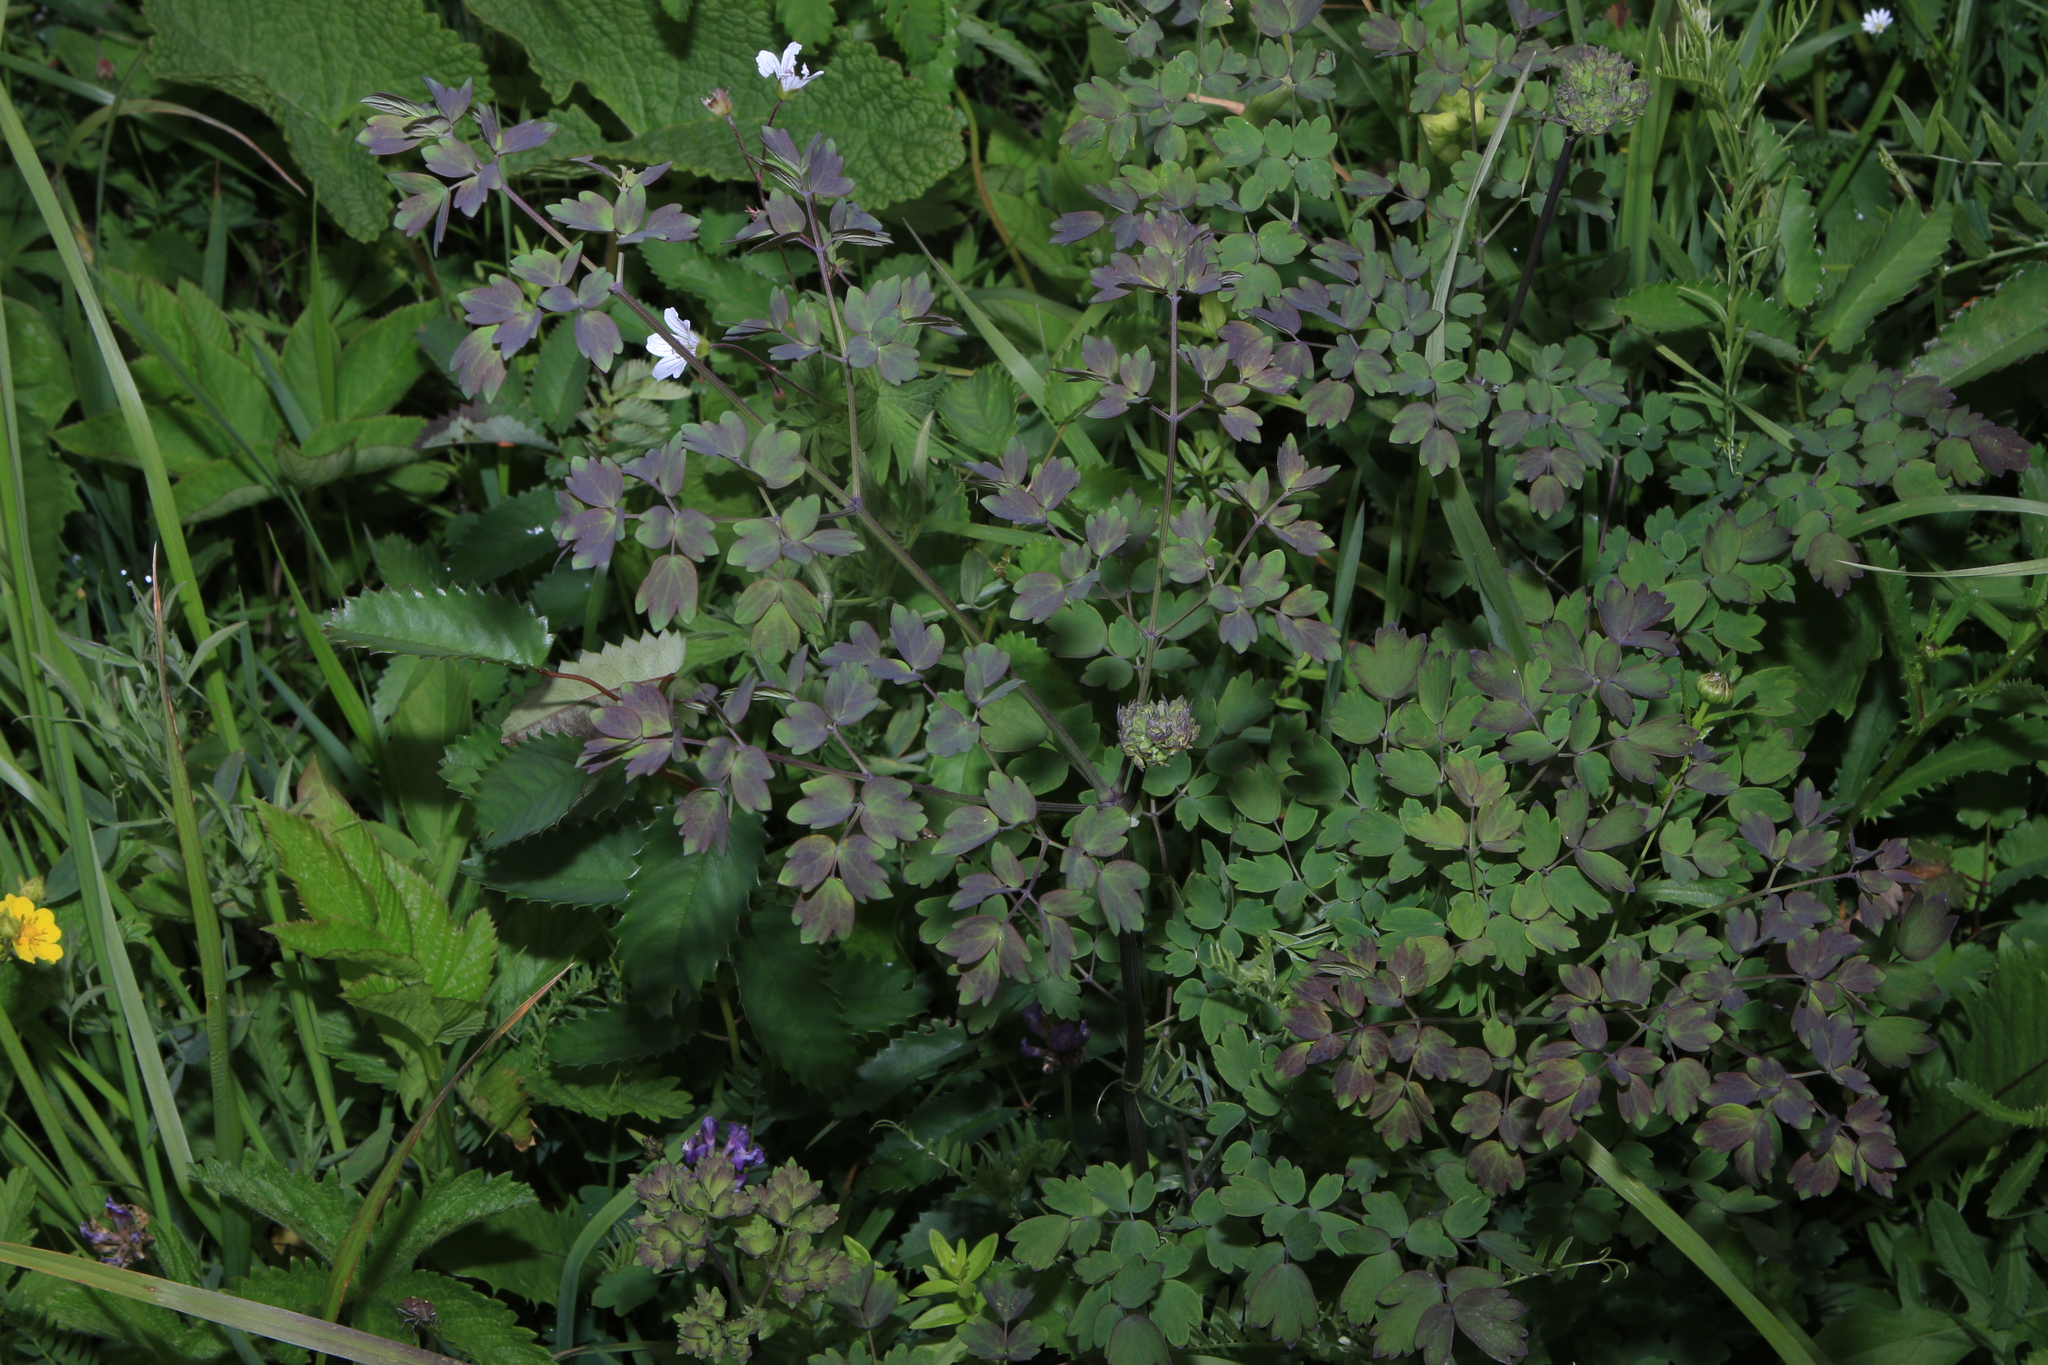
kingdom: Plantae
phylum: Tracheophyta
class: Magnoliopsida
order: Ranunculales
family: Ranunculaceae
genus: Thalictrum
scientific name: Thalictrum minus
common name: Lesser meadow-rue
